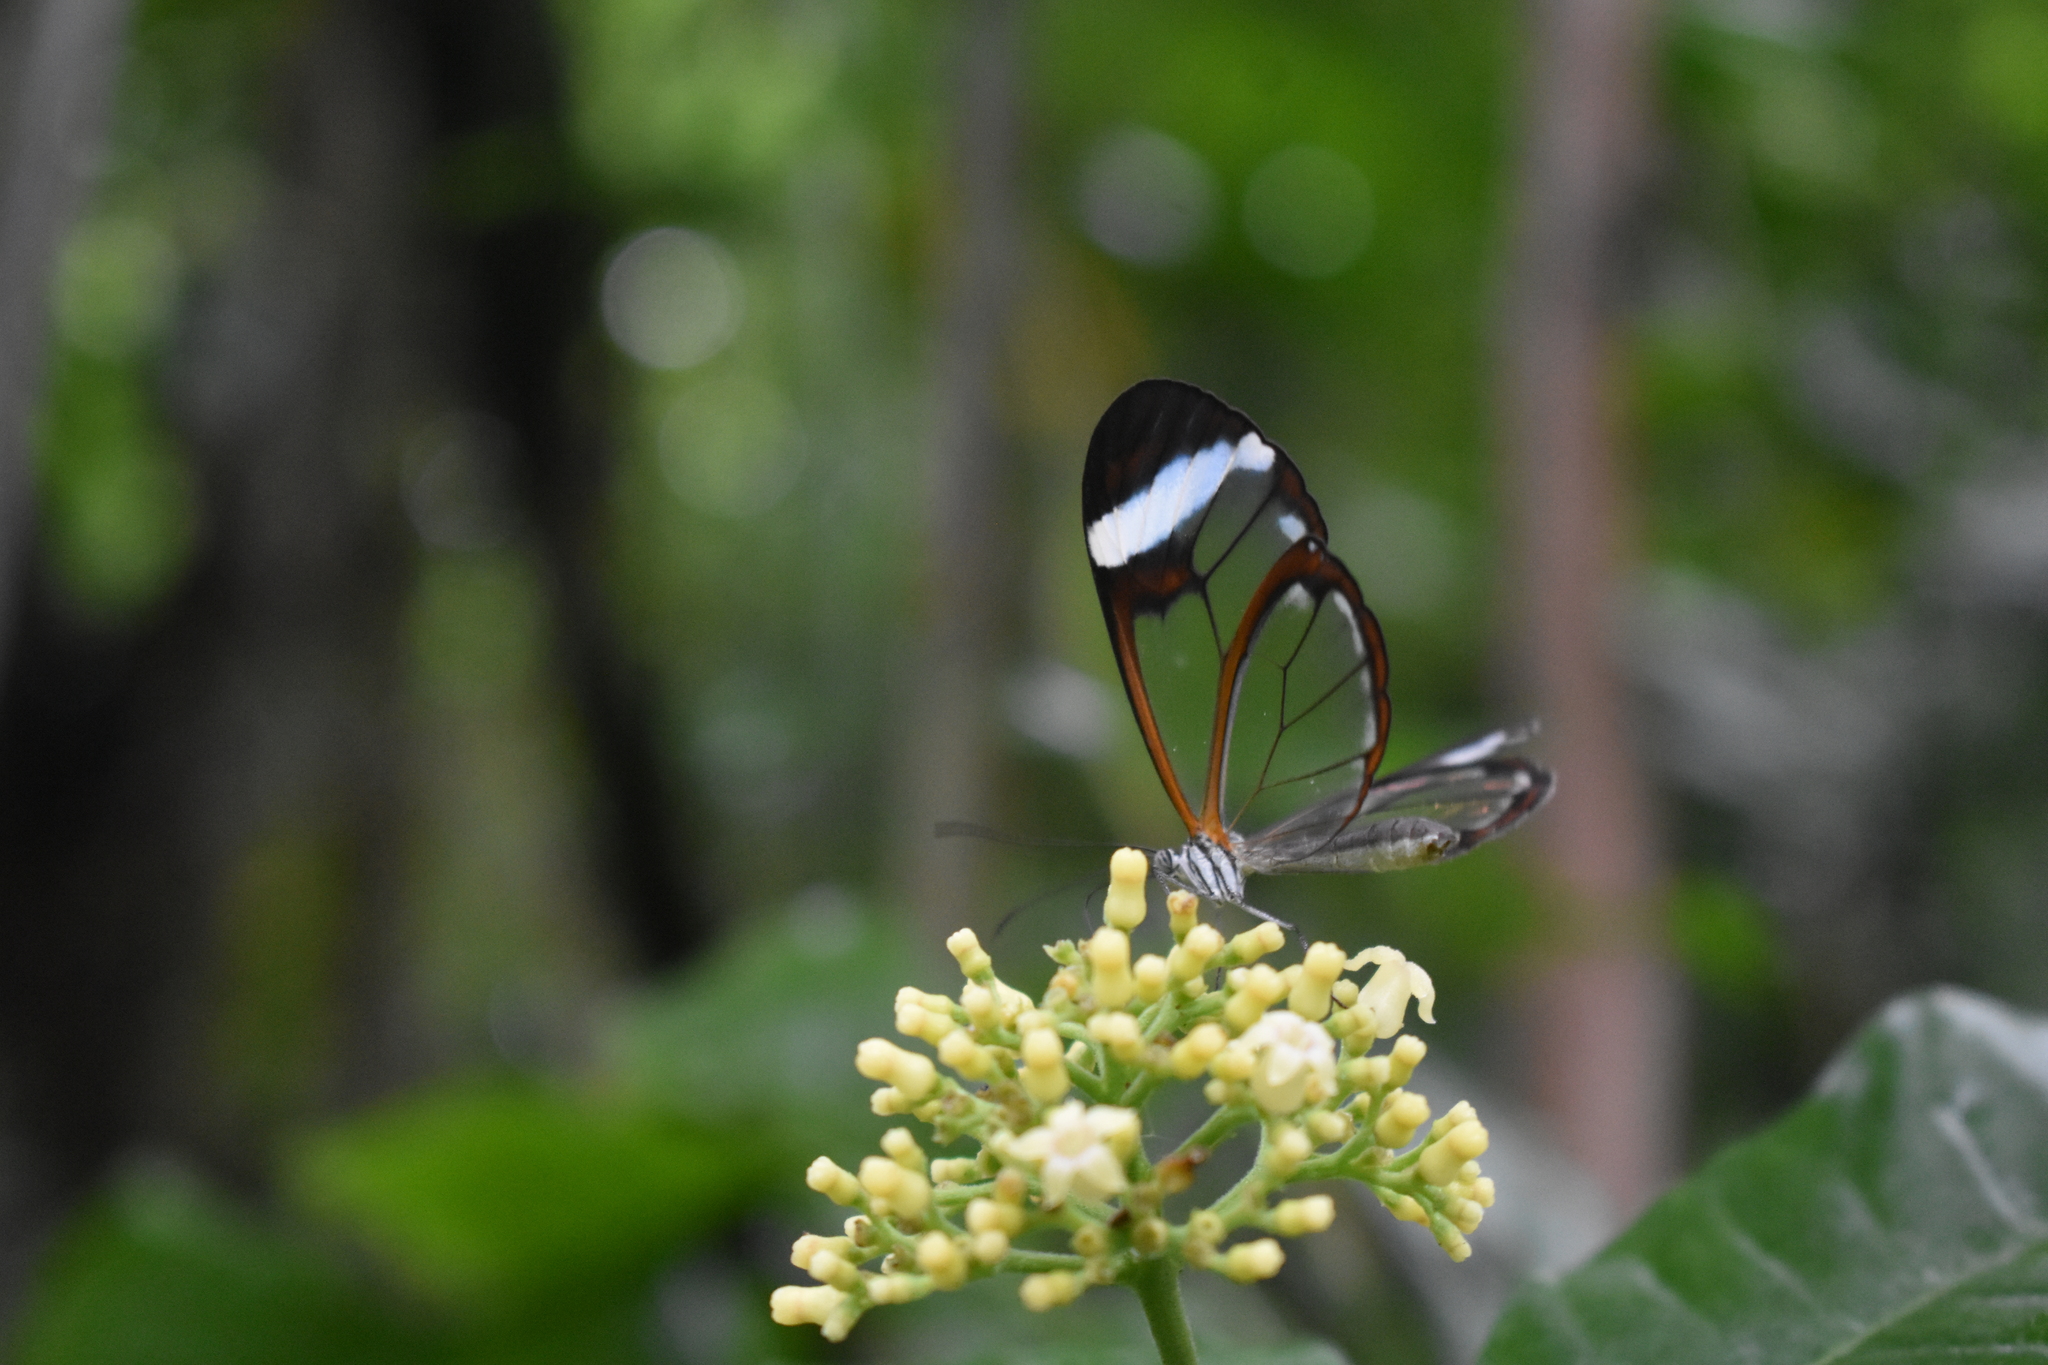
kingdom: Animalia
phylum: Arthropoda
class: Insecta
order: Lepidoptera
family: Nymphalidae
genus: Greta
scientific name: Greta morgane
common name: Thick-tipped greta
